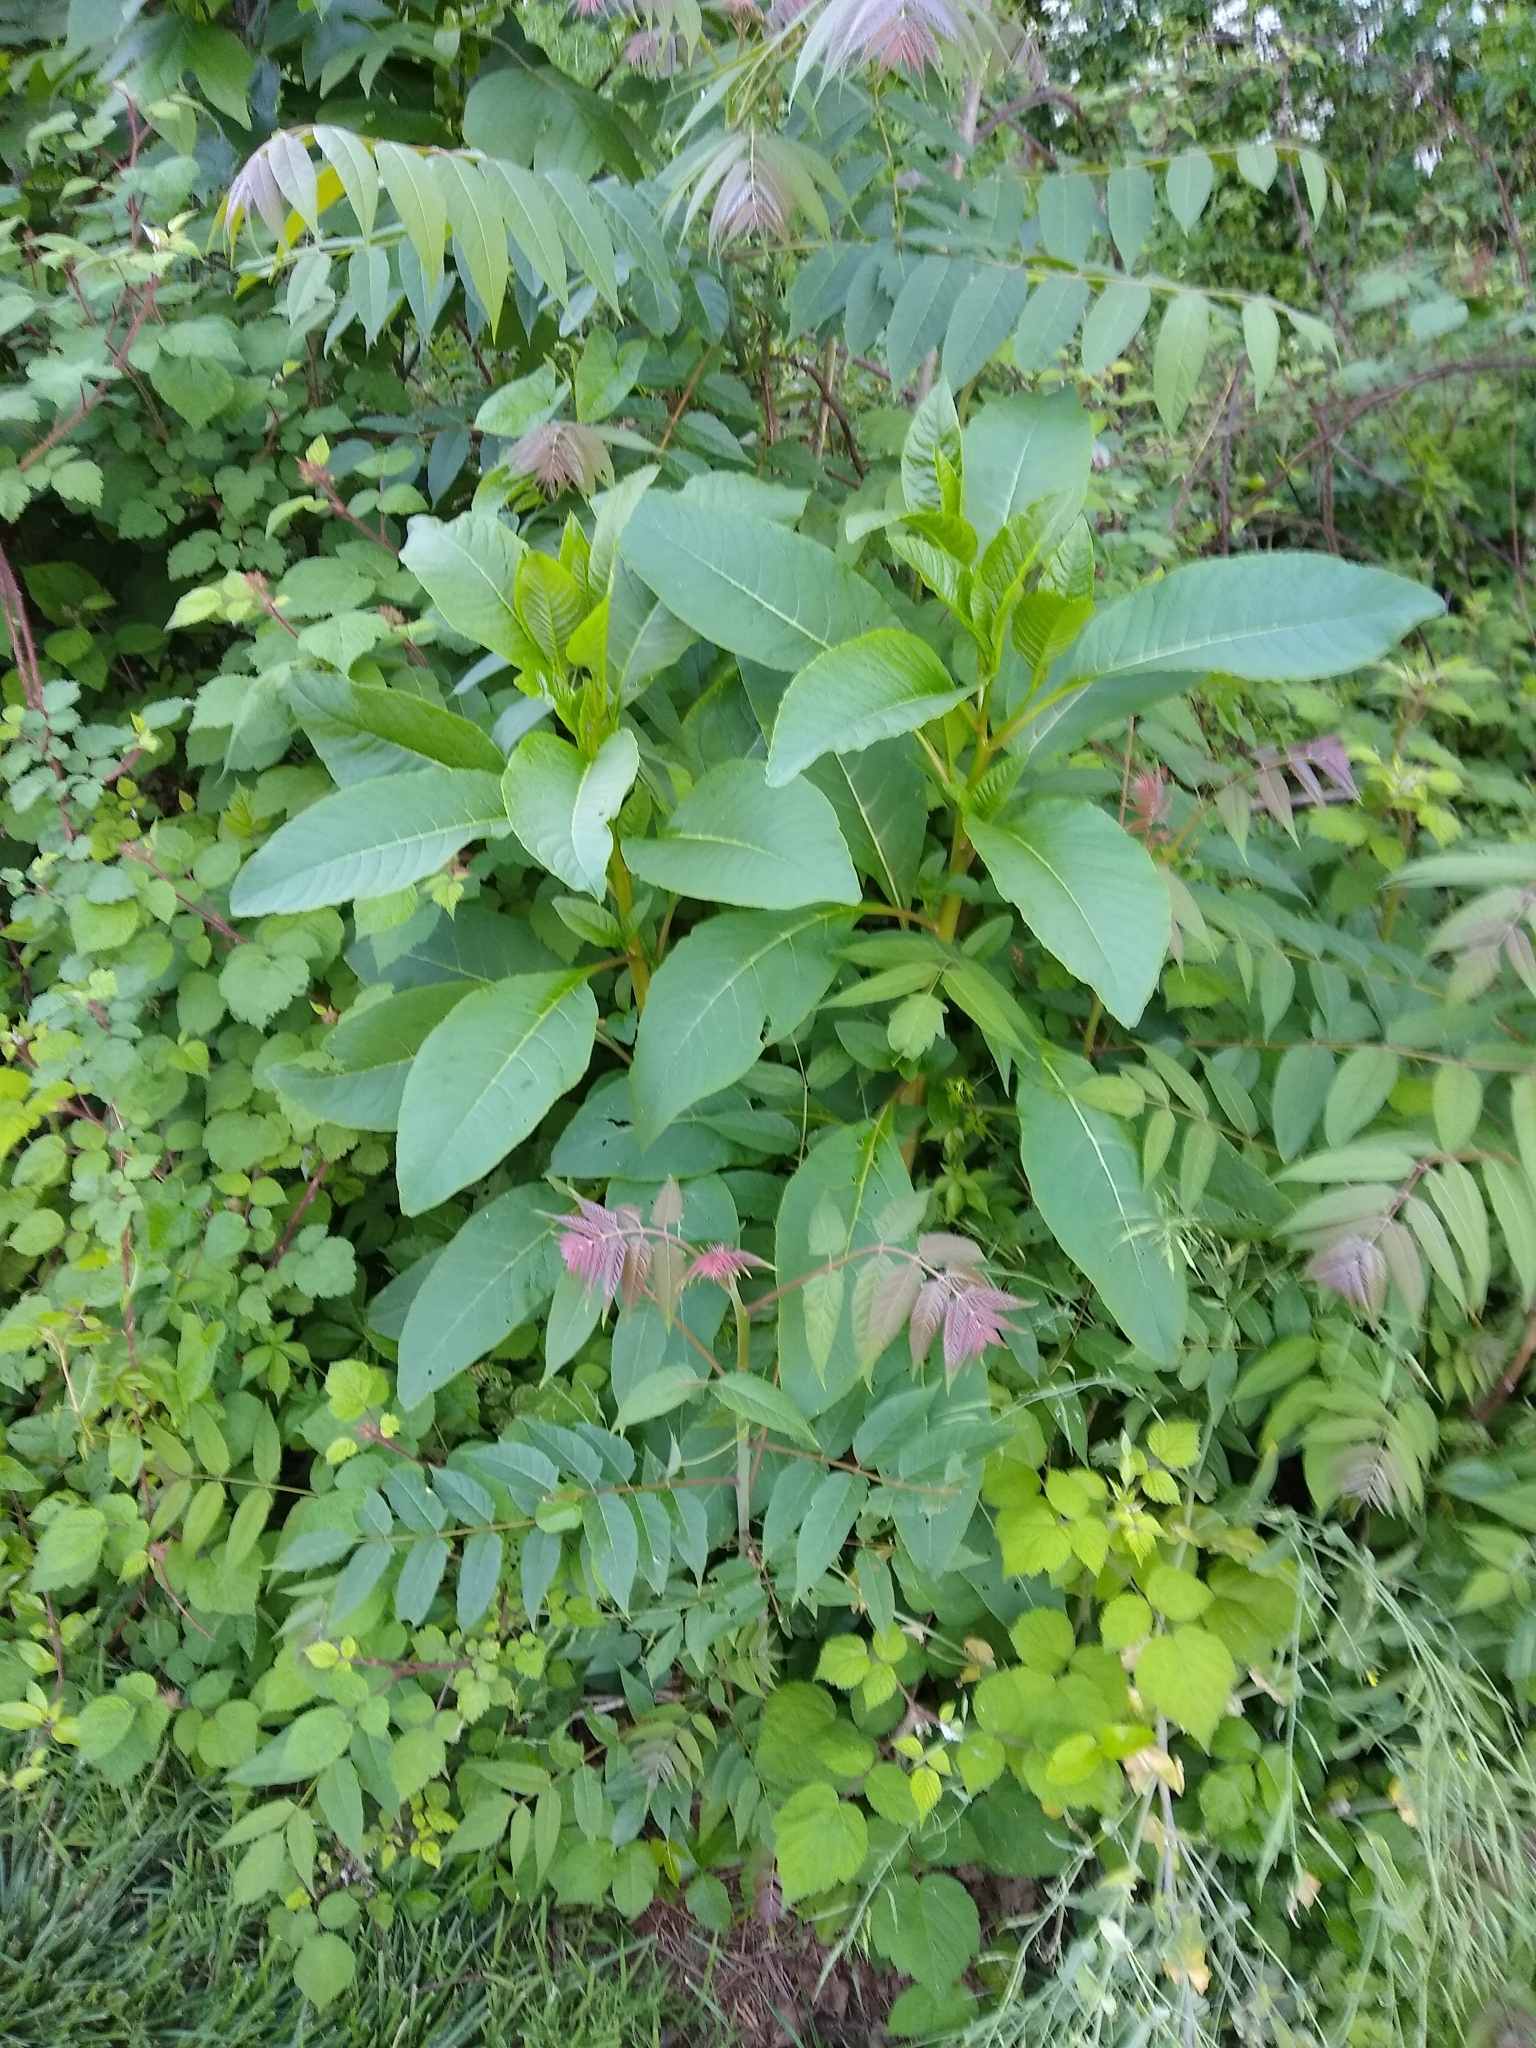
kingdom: Plantae
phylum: Tracheophyta
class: Magnoliopsida
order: Caryophyllales
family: Phytolaccaceae
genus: Phytolacca
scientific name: Phytolacca americana
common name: American pokeweed
